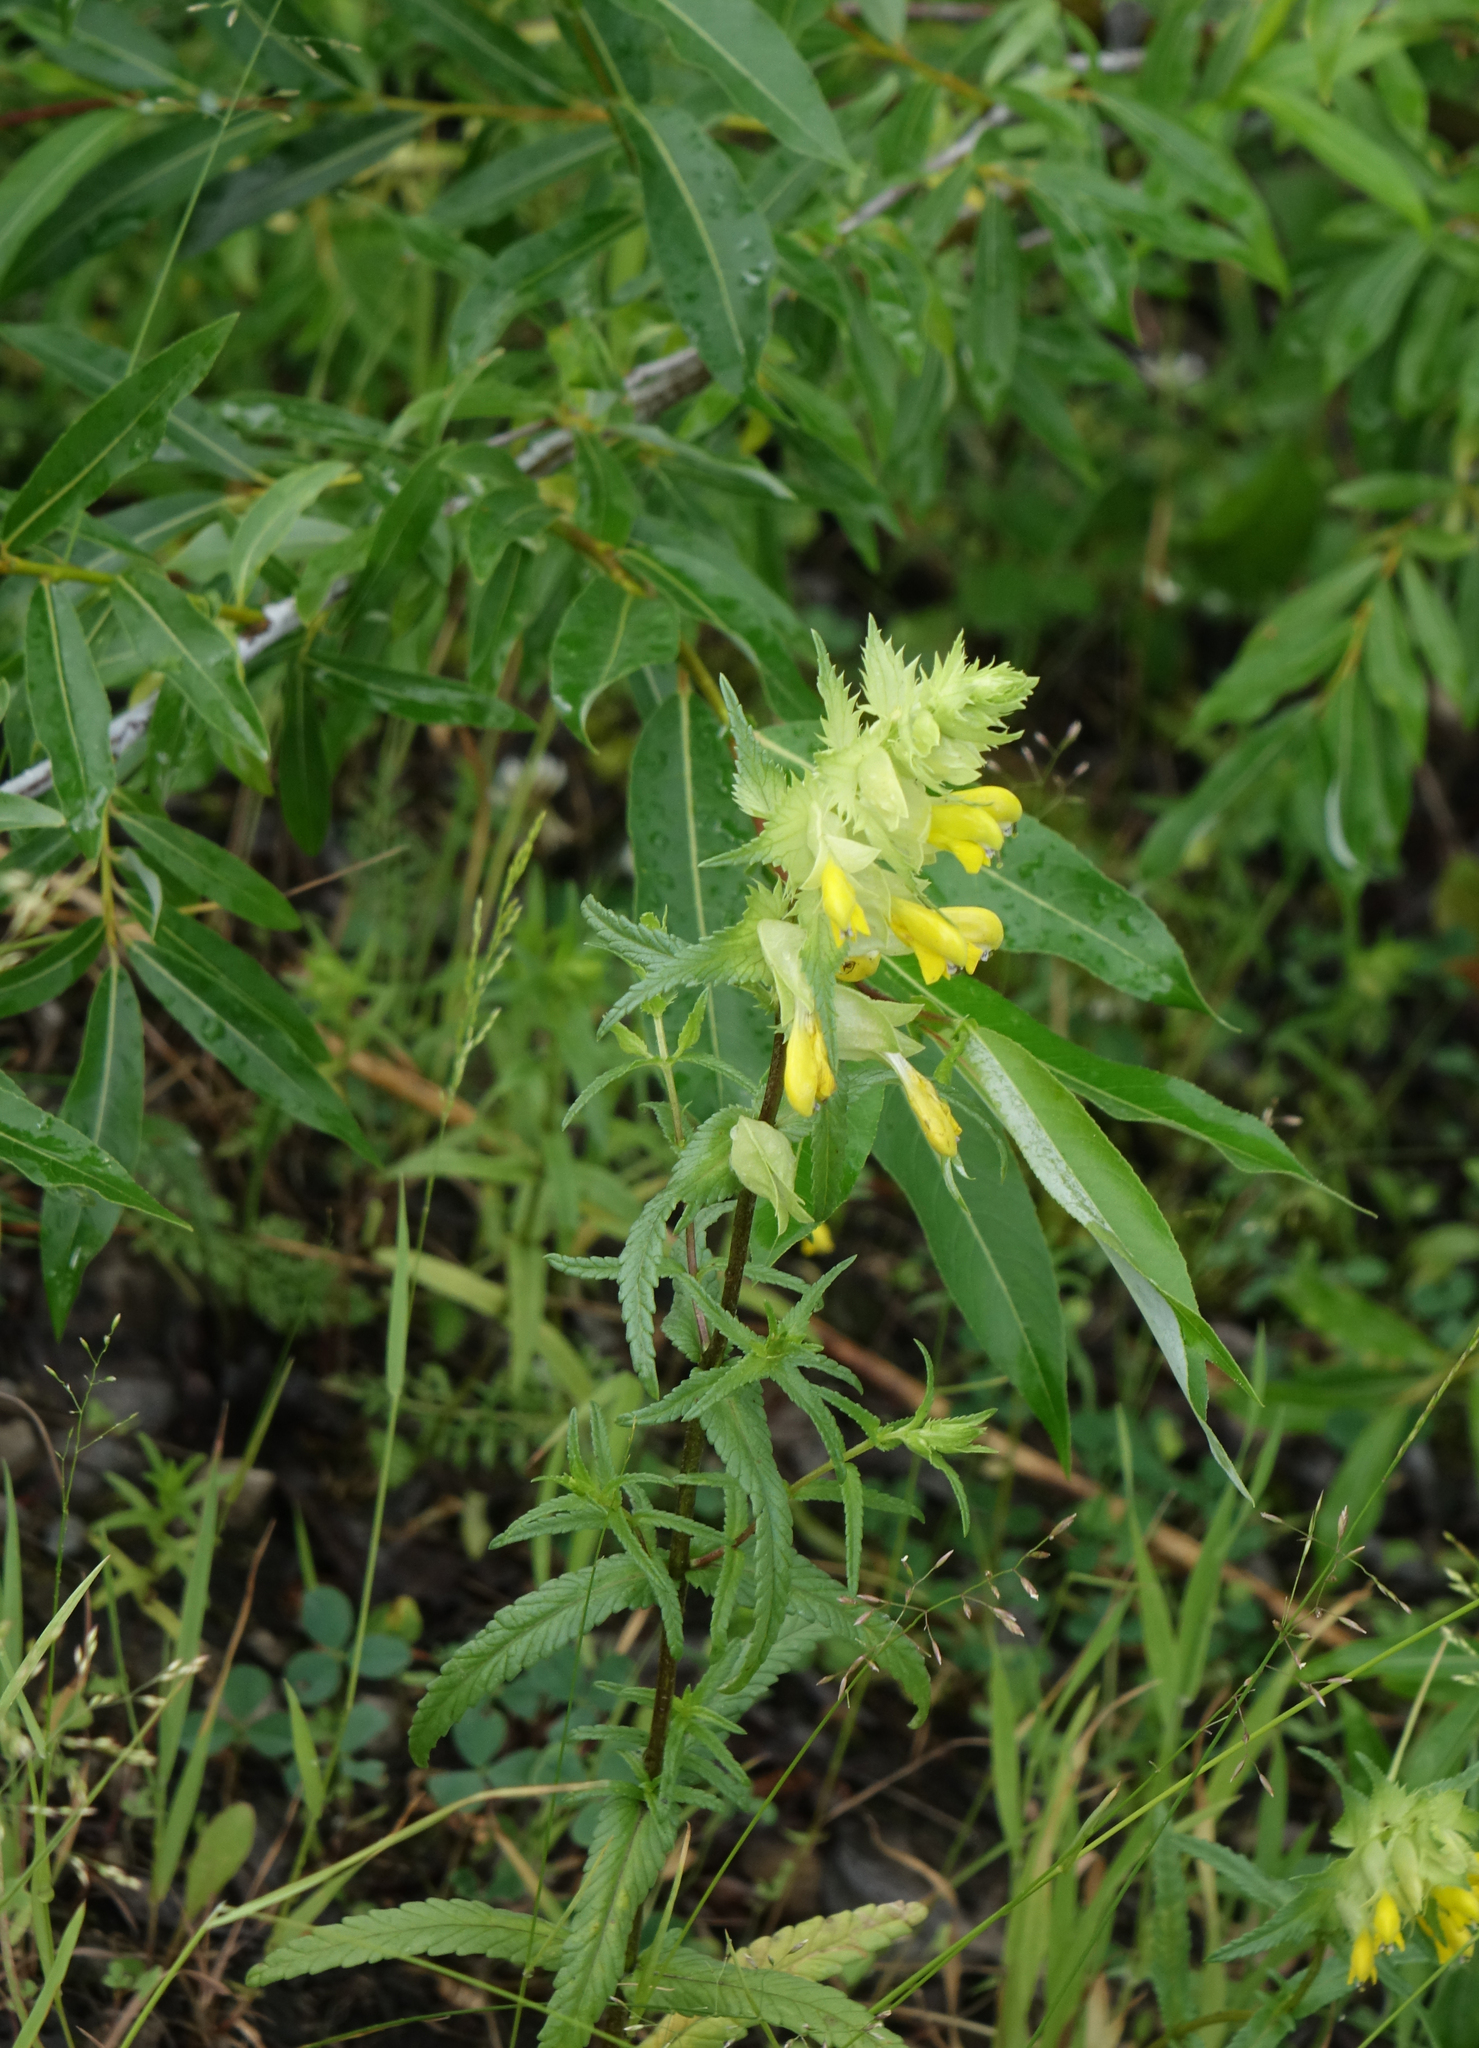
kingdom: Plantae
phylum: Tracheophyta
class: Magnoliopsida
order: Lamiales
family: Orobanchaceae
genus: Rhinanthus
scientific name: Rhinanthus serotinus
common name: Late-flowering yellow rattle
